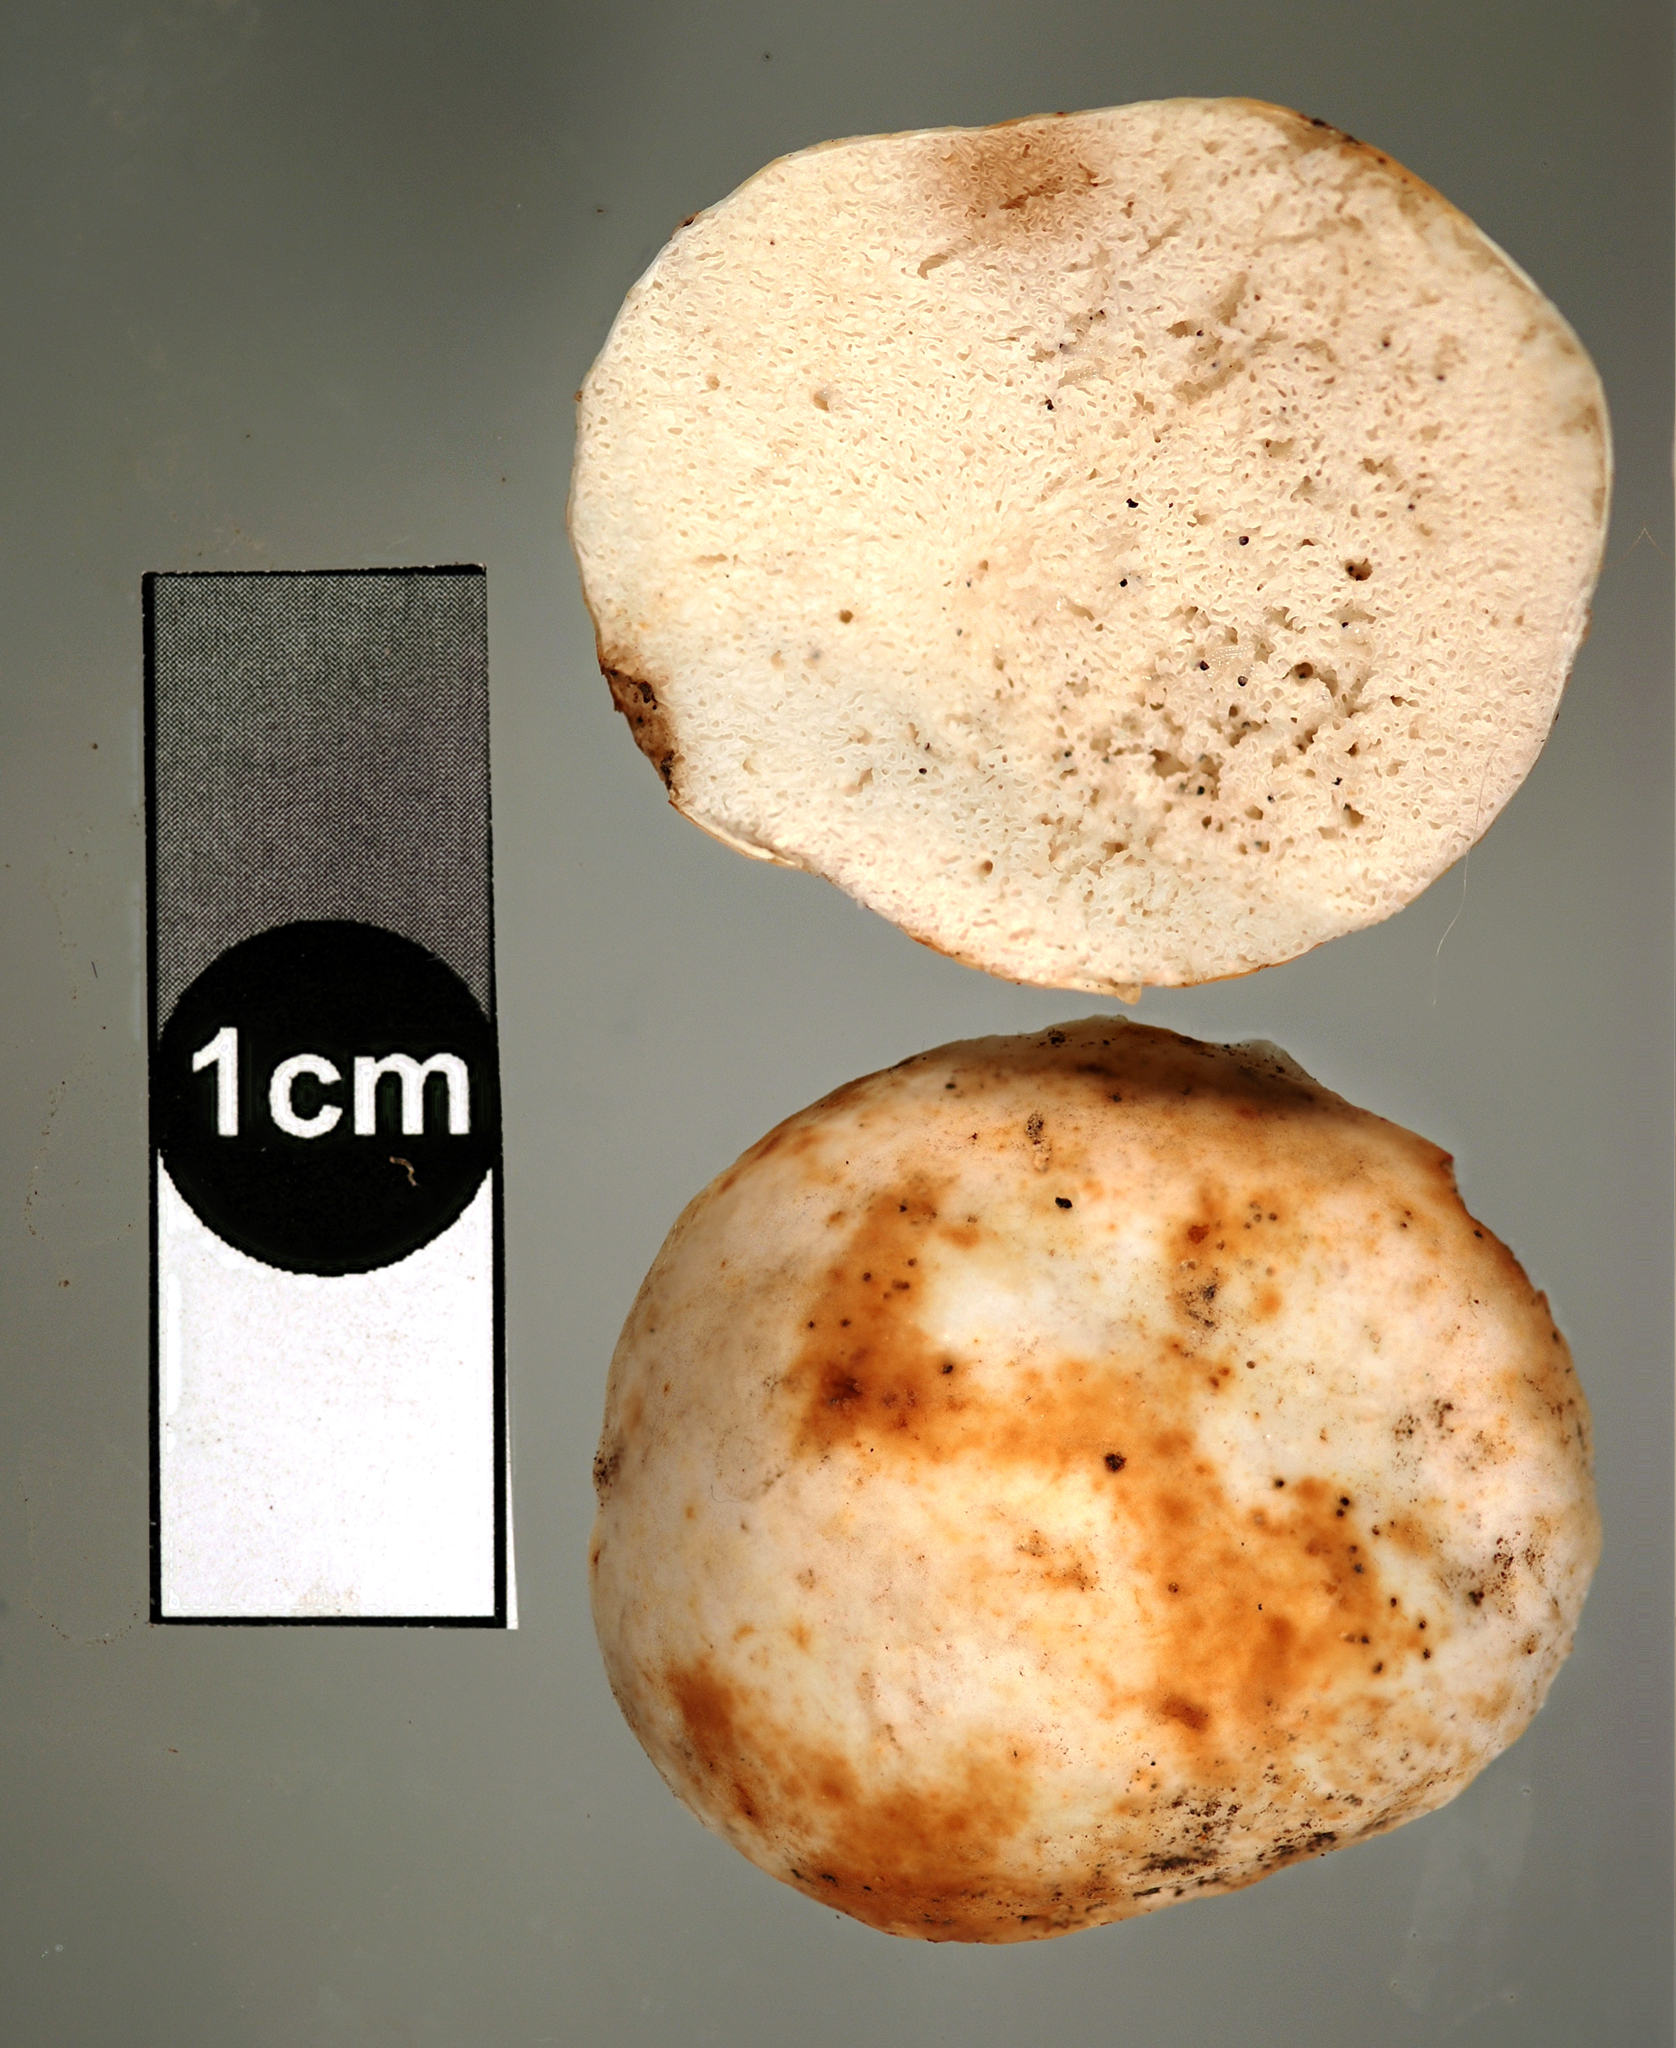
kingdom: Fungi
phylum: Basidiomycota
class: Agaricomycetes
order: Russulales
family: Russulaceae
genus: Russula
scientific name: Russula parvisaxoides
